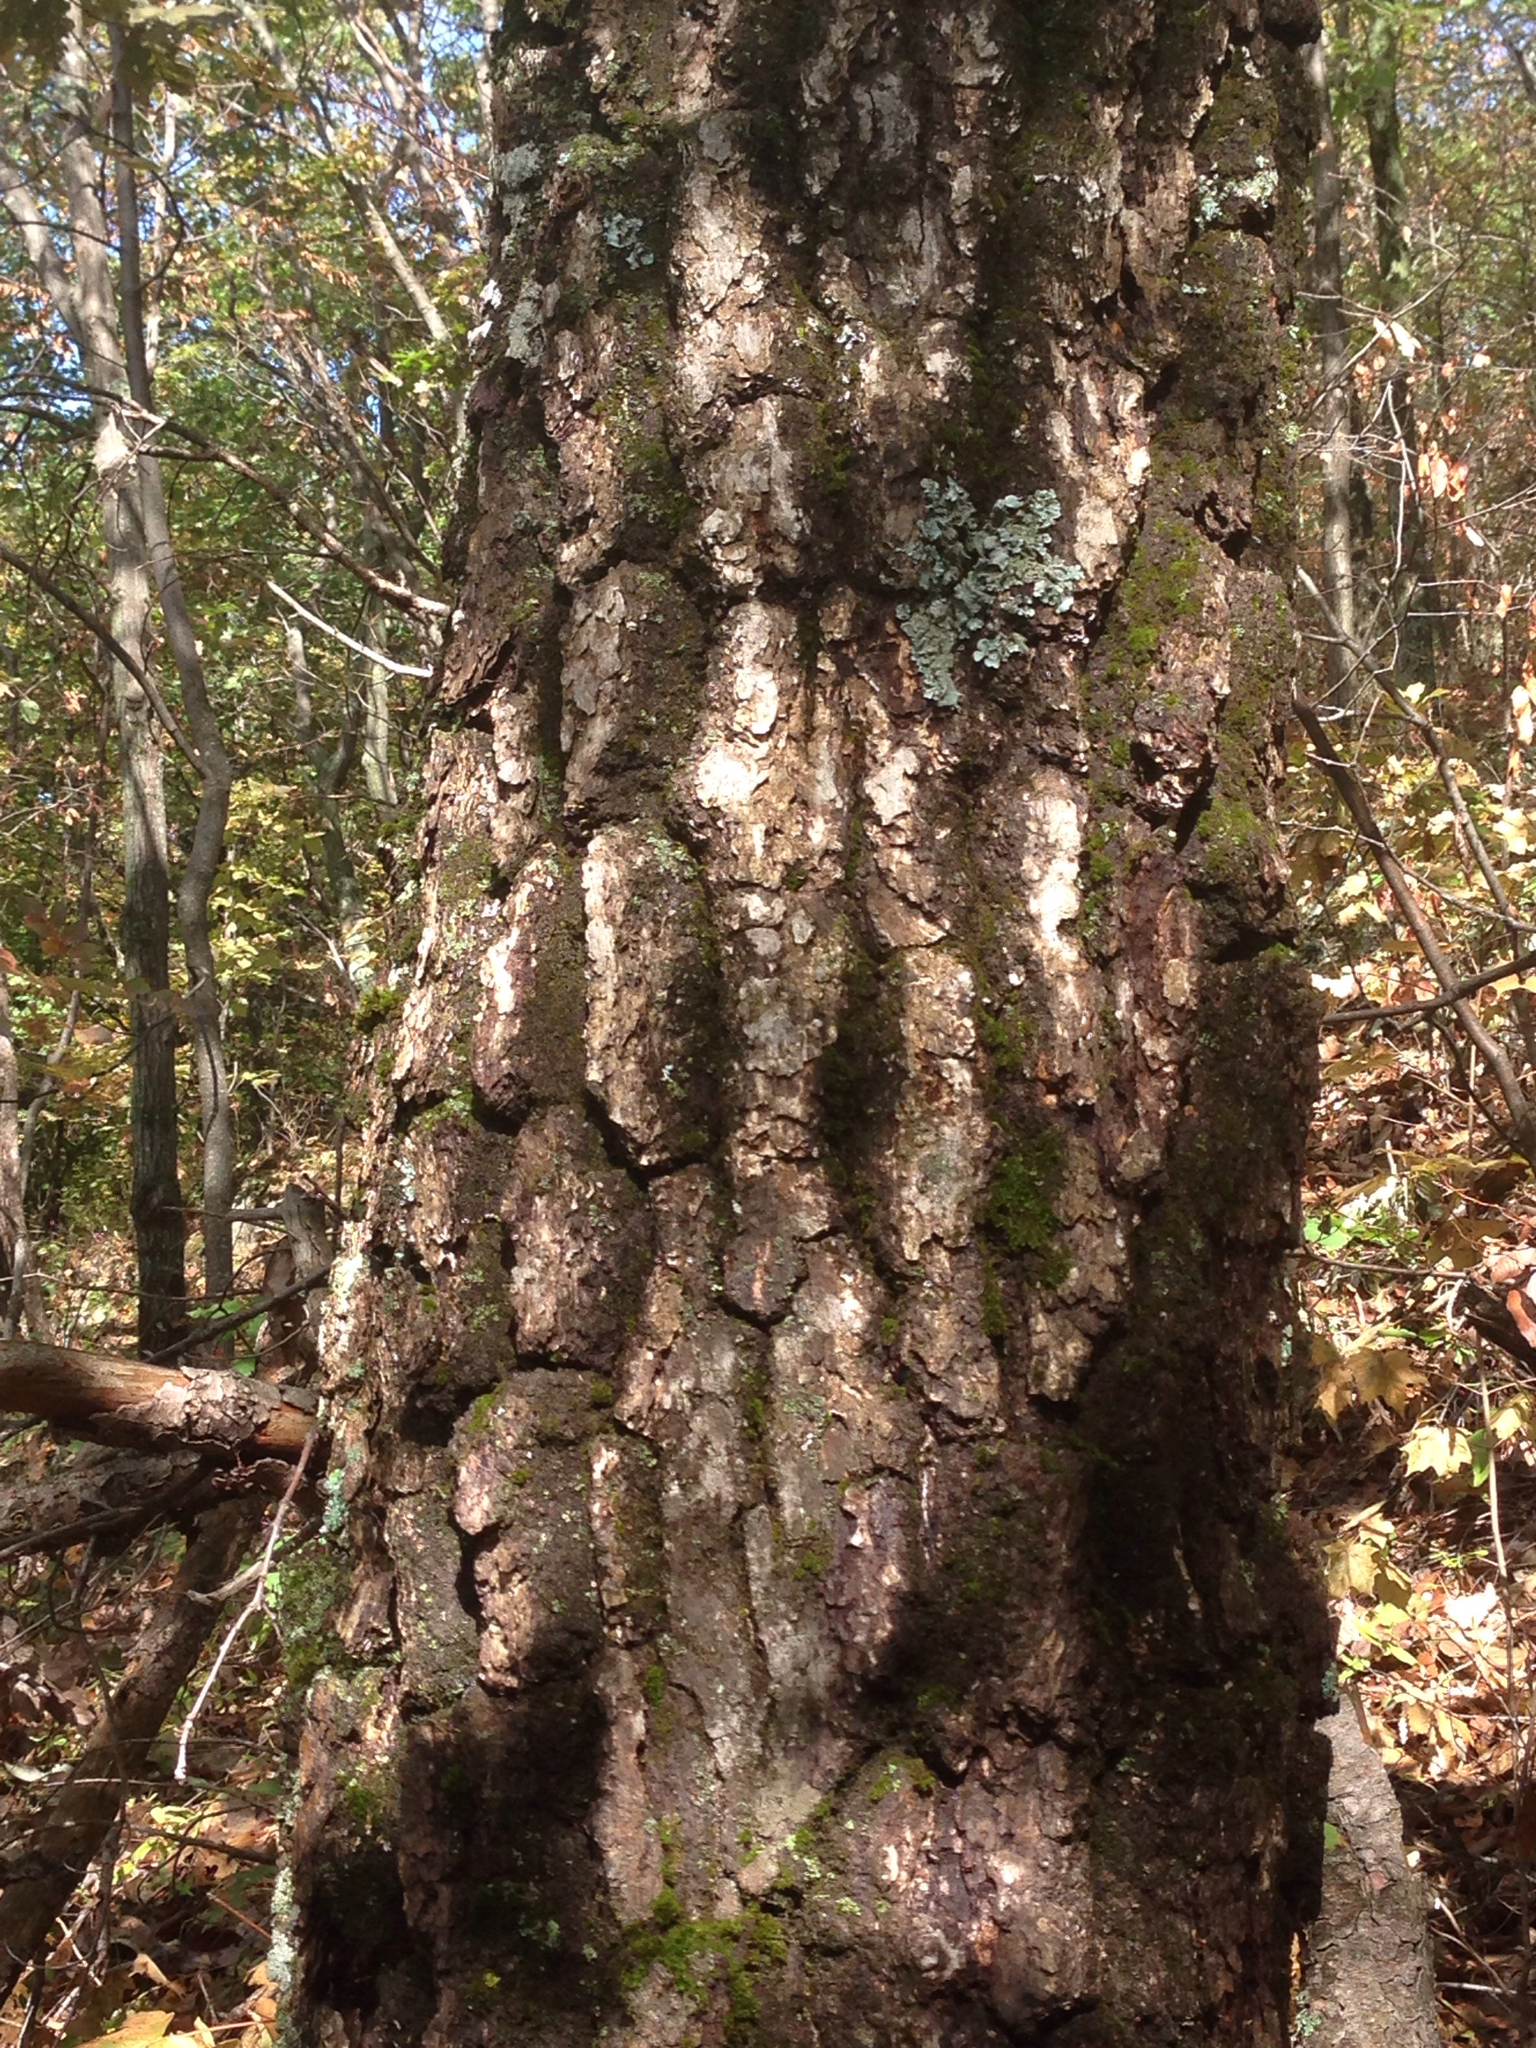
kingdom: Plantae
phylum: Tracheophyta
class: Magnoliopsida
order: Fagales
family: Fagaceae
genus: Quercus
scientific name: Quercus montana
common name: Chestnut oak
